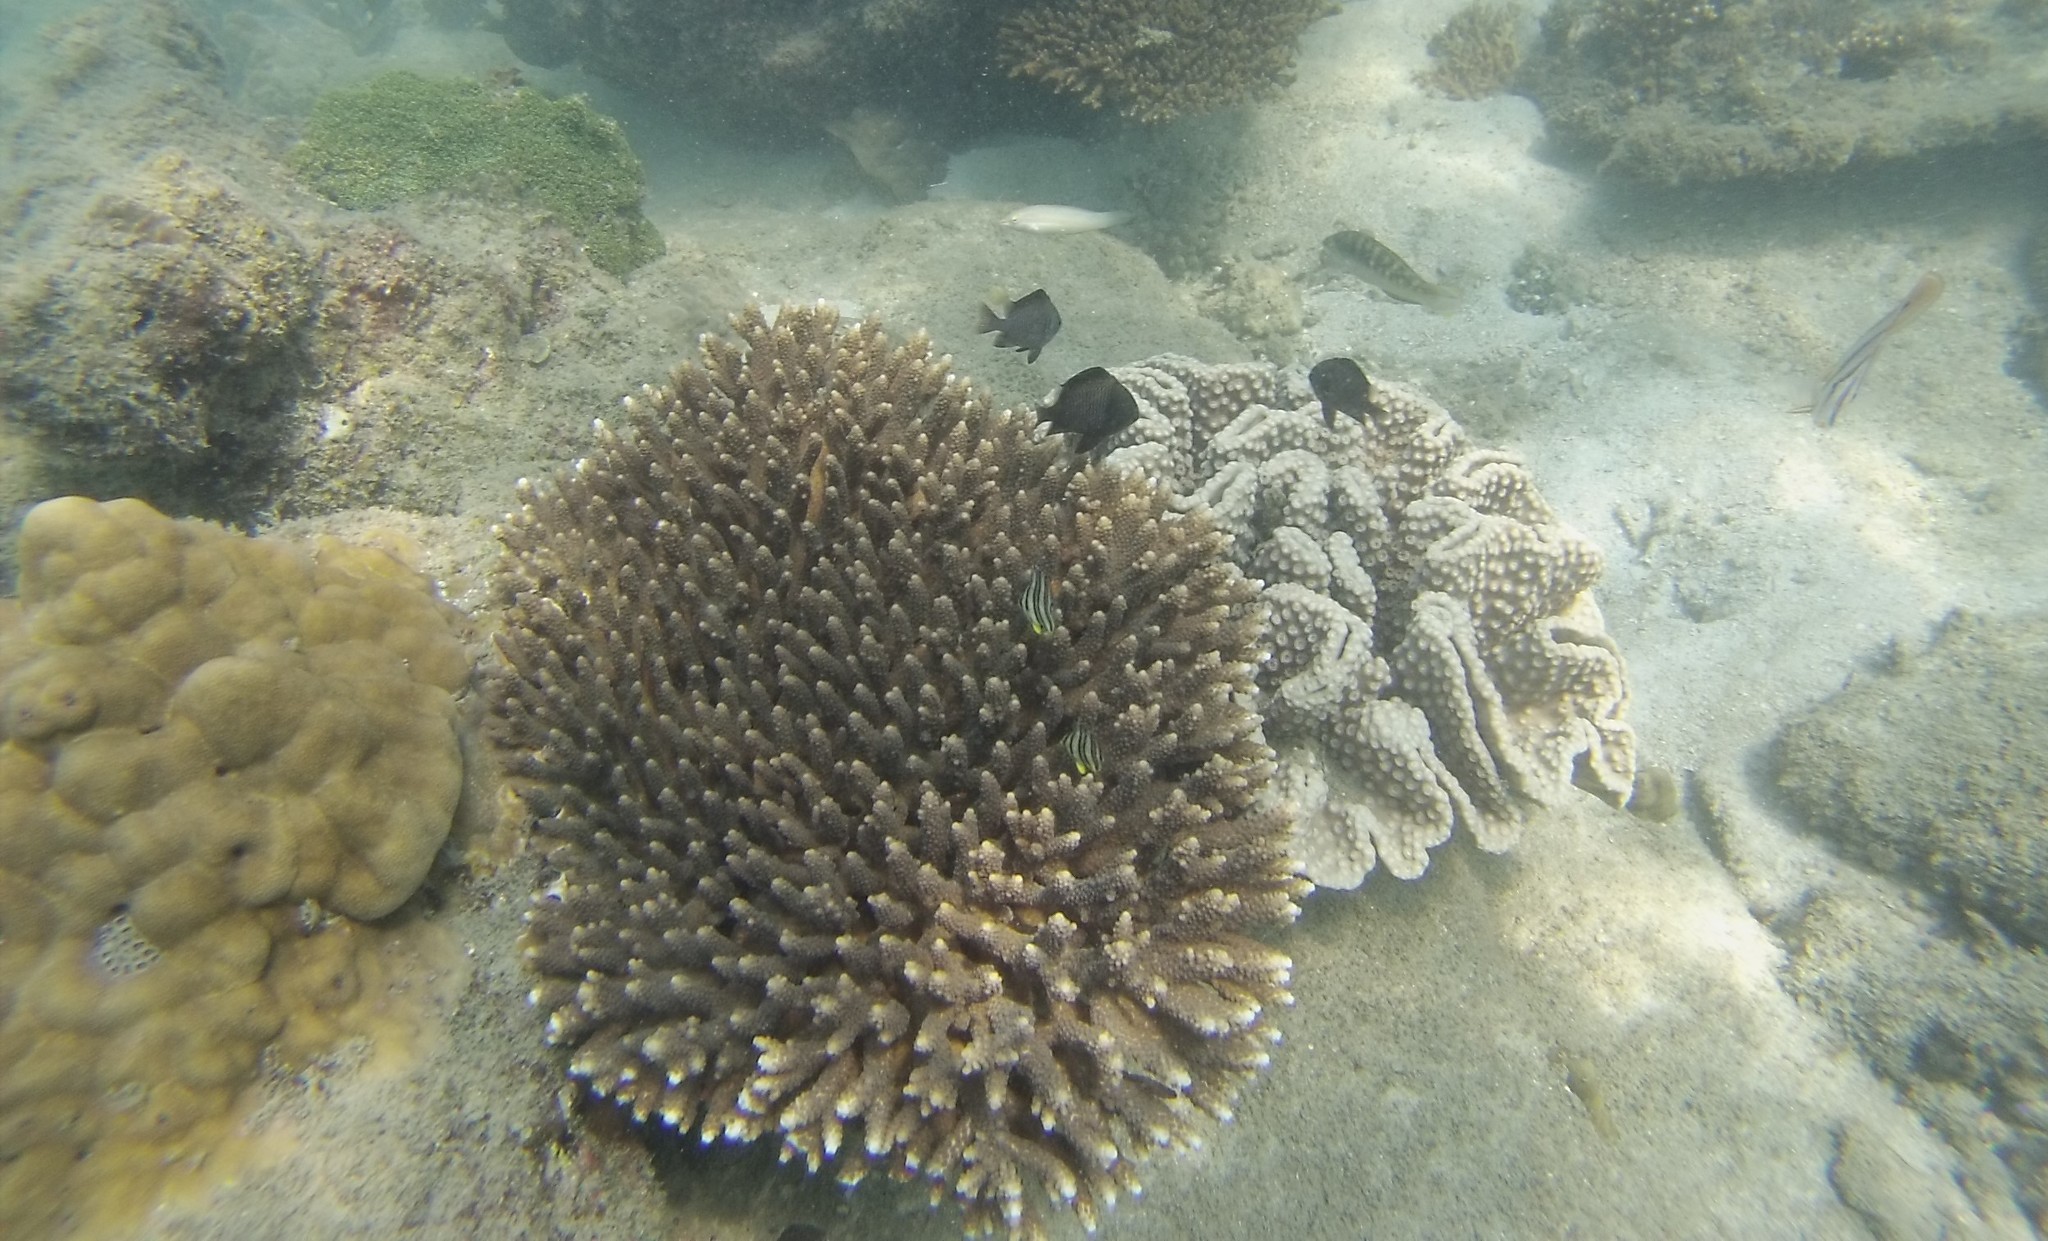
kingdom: Animalia
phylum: Chordata
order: Perciformes
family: Pomacentridae
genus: Dascyllus
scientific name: Dascyllus reticulatus
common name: Reticulated dascyllus
